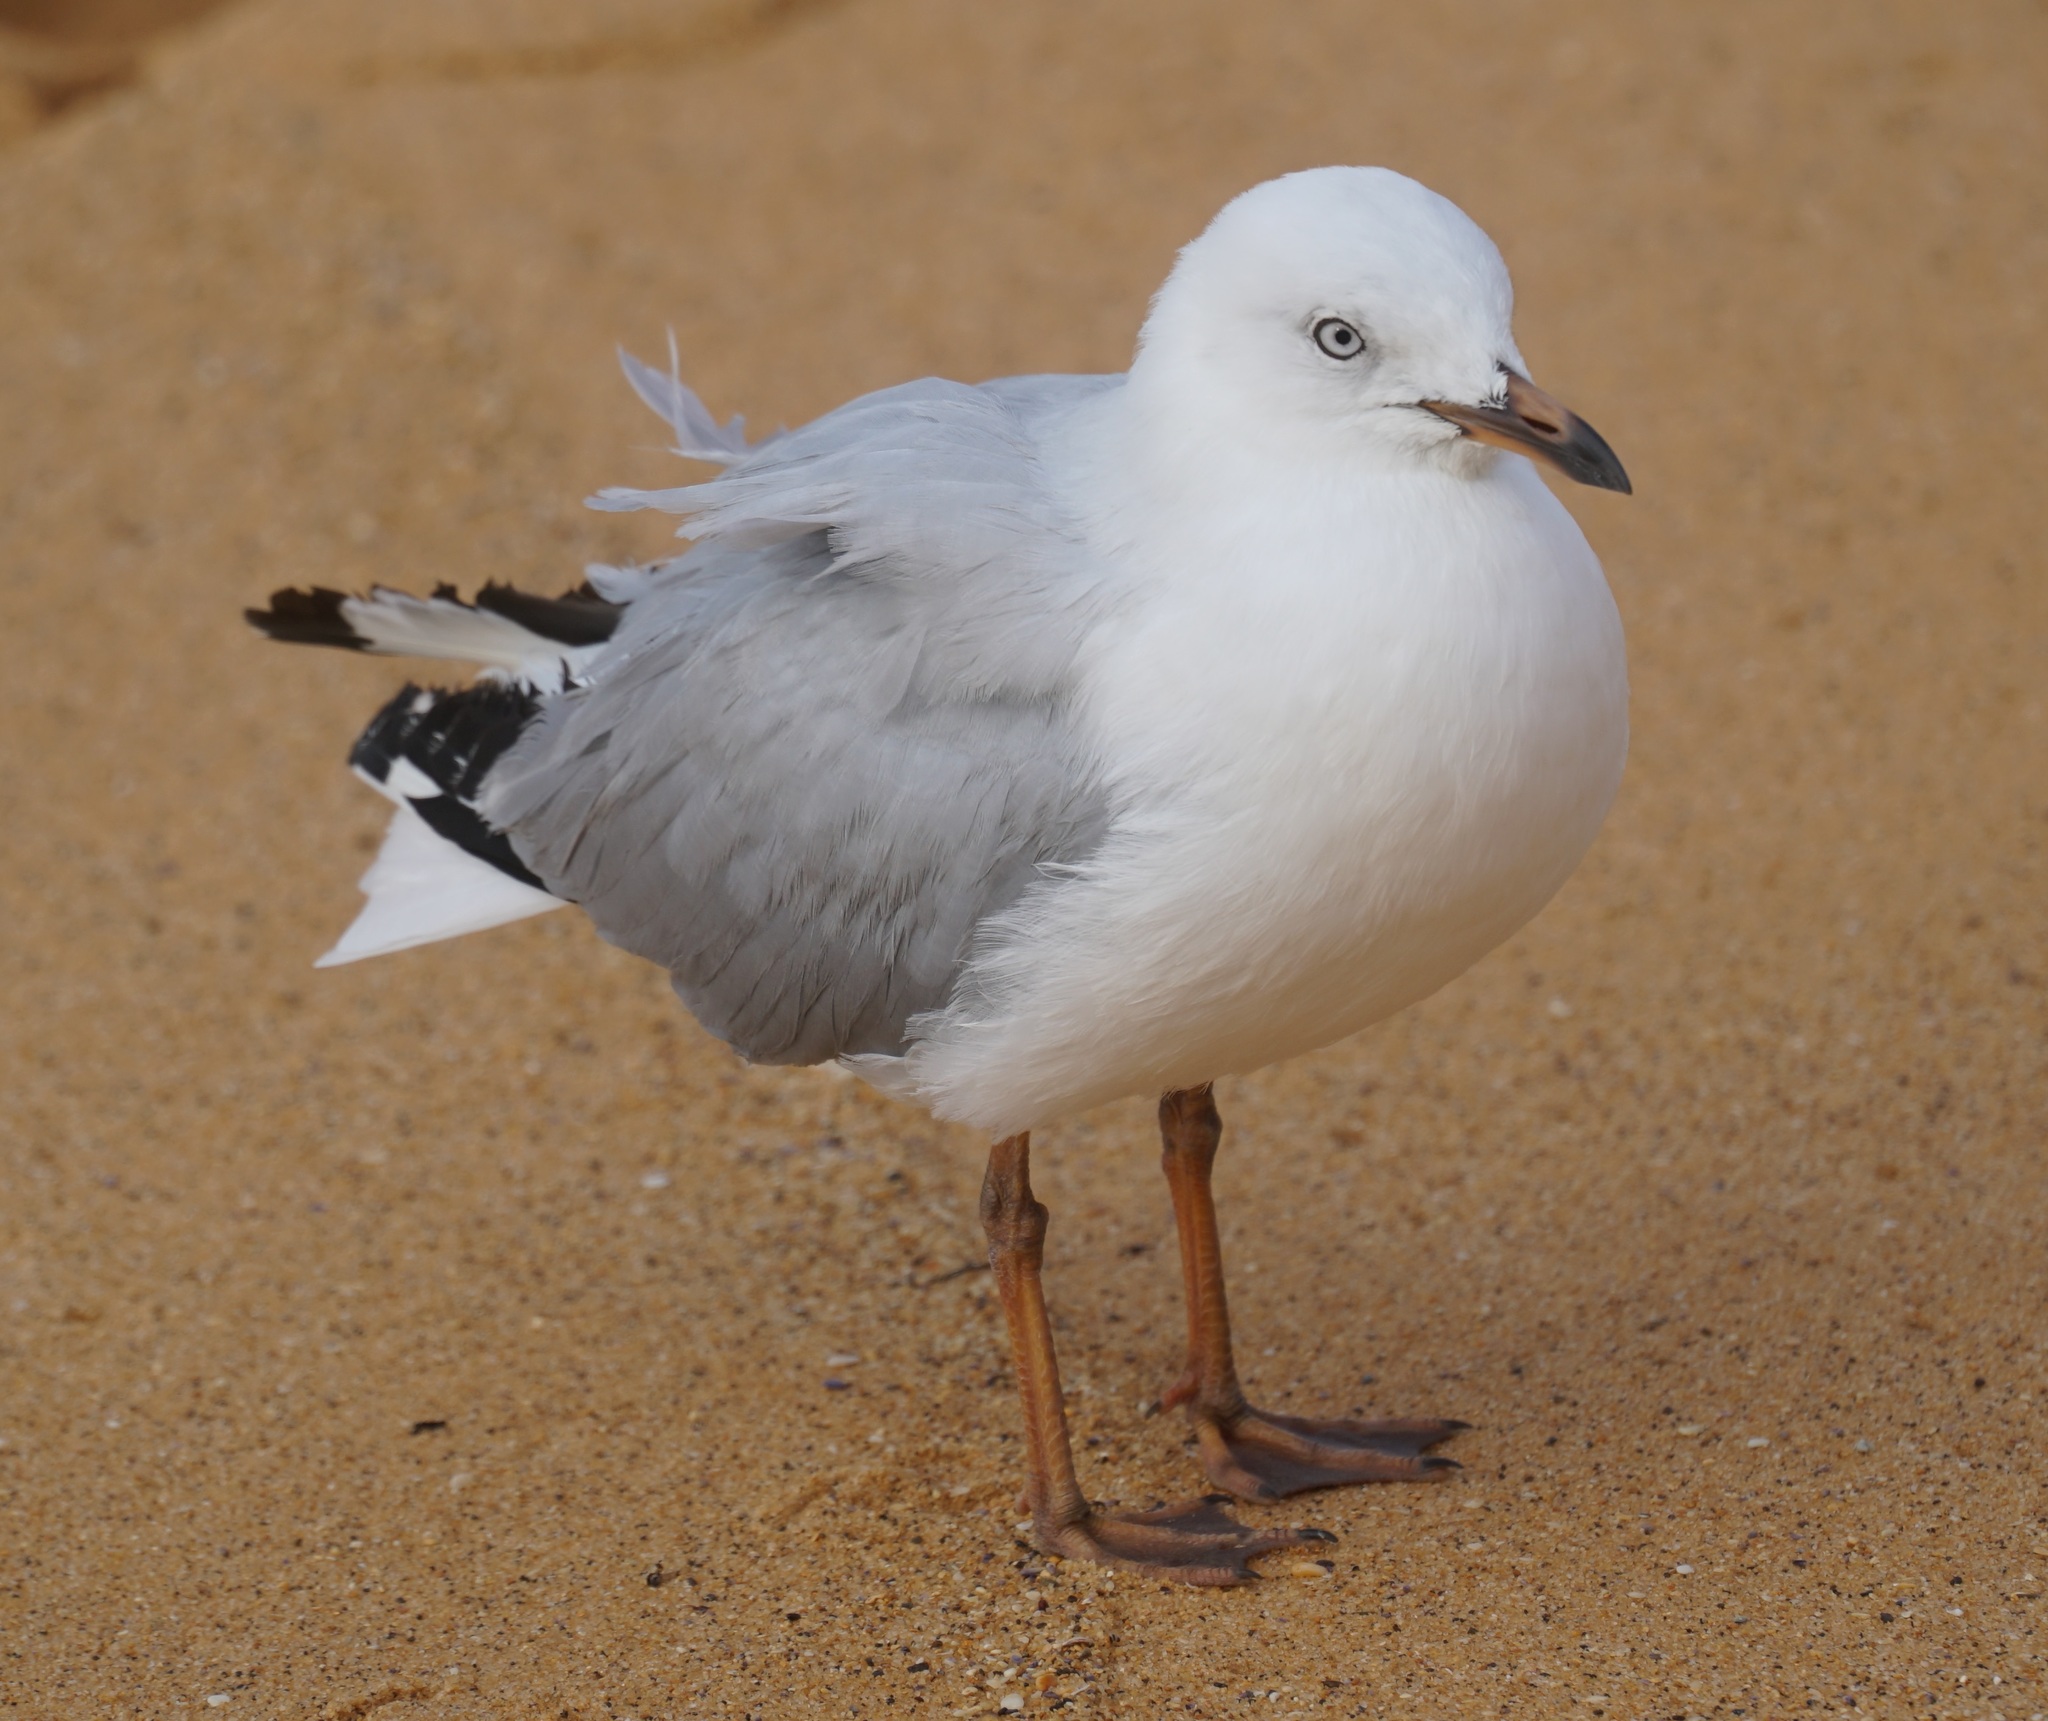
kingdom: Animalia
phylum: Chordata
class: Aves
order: Charadriiformes
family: Laridae
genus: Chroicocephalus
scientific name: Chroicocephalus novaehollandiae
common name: Silver gull
